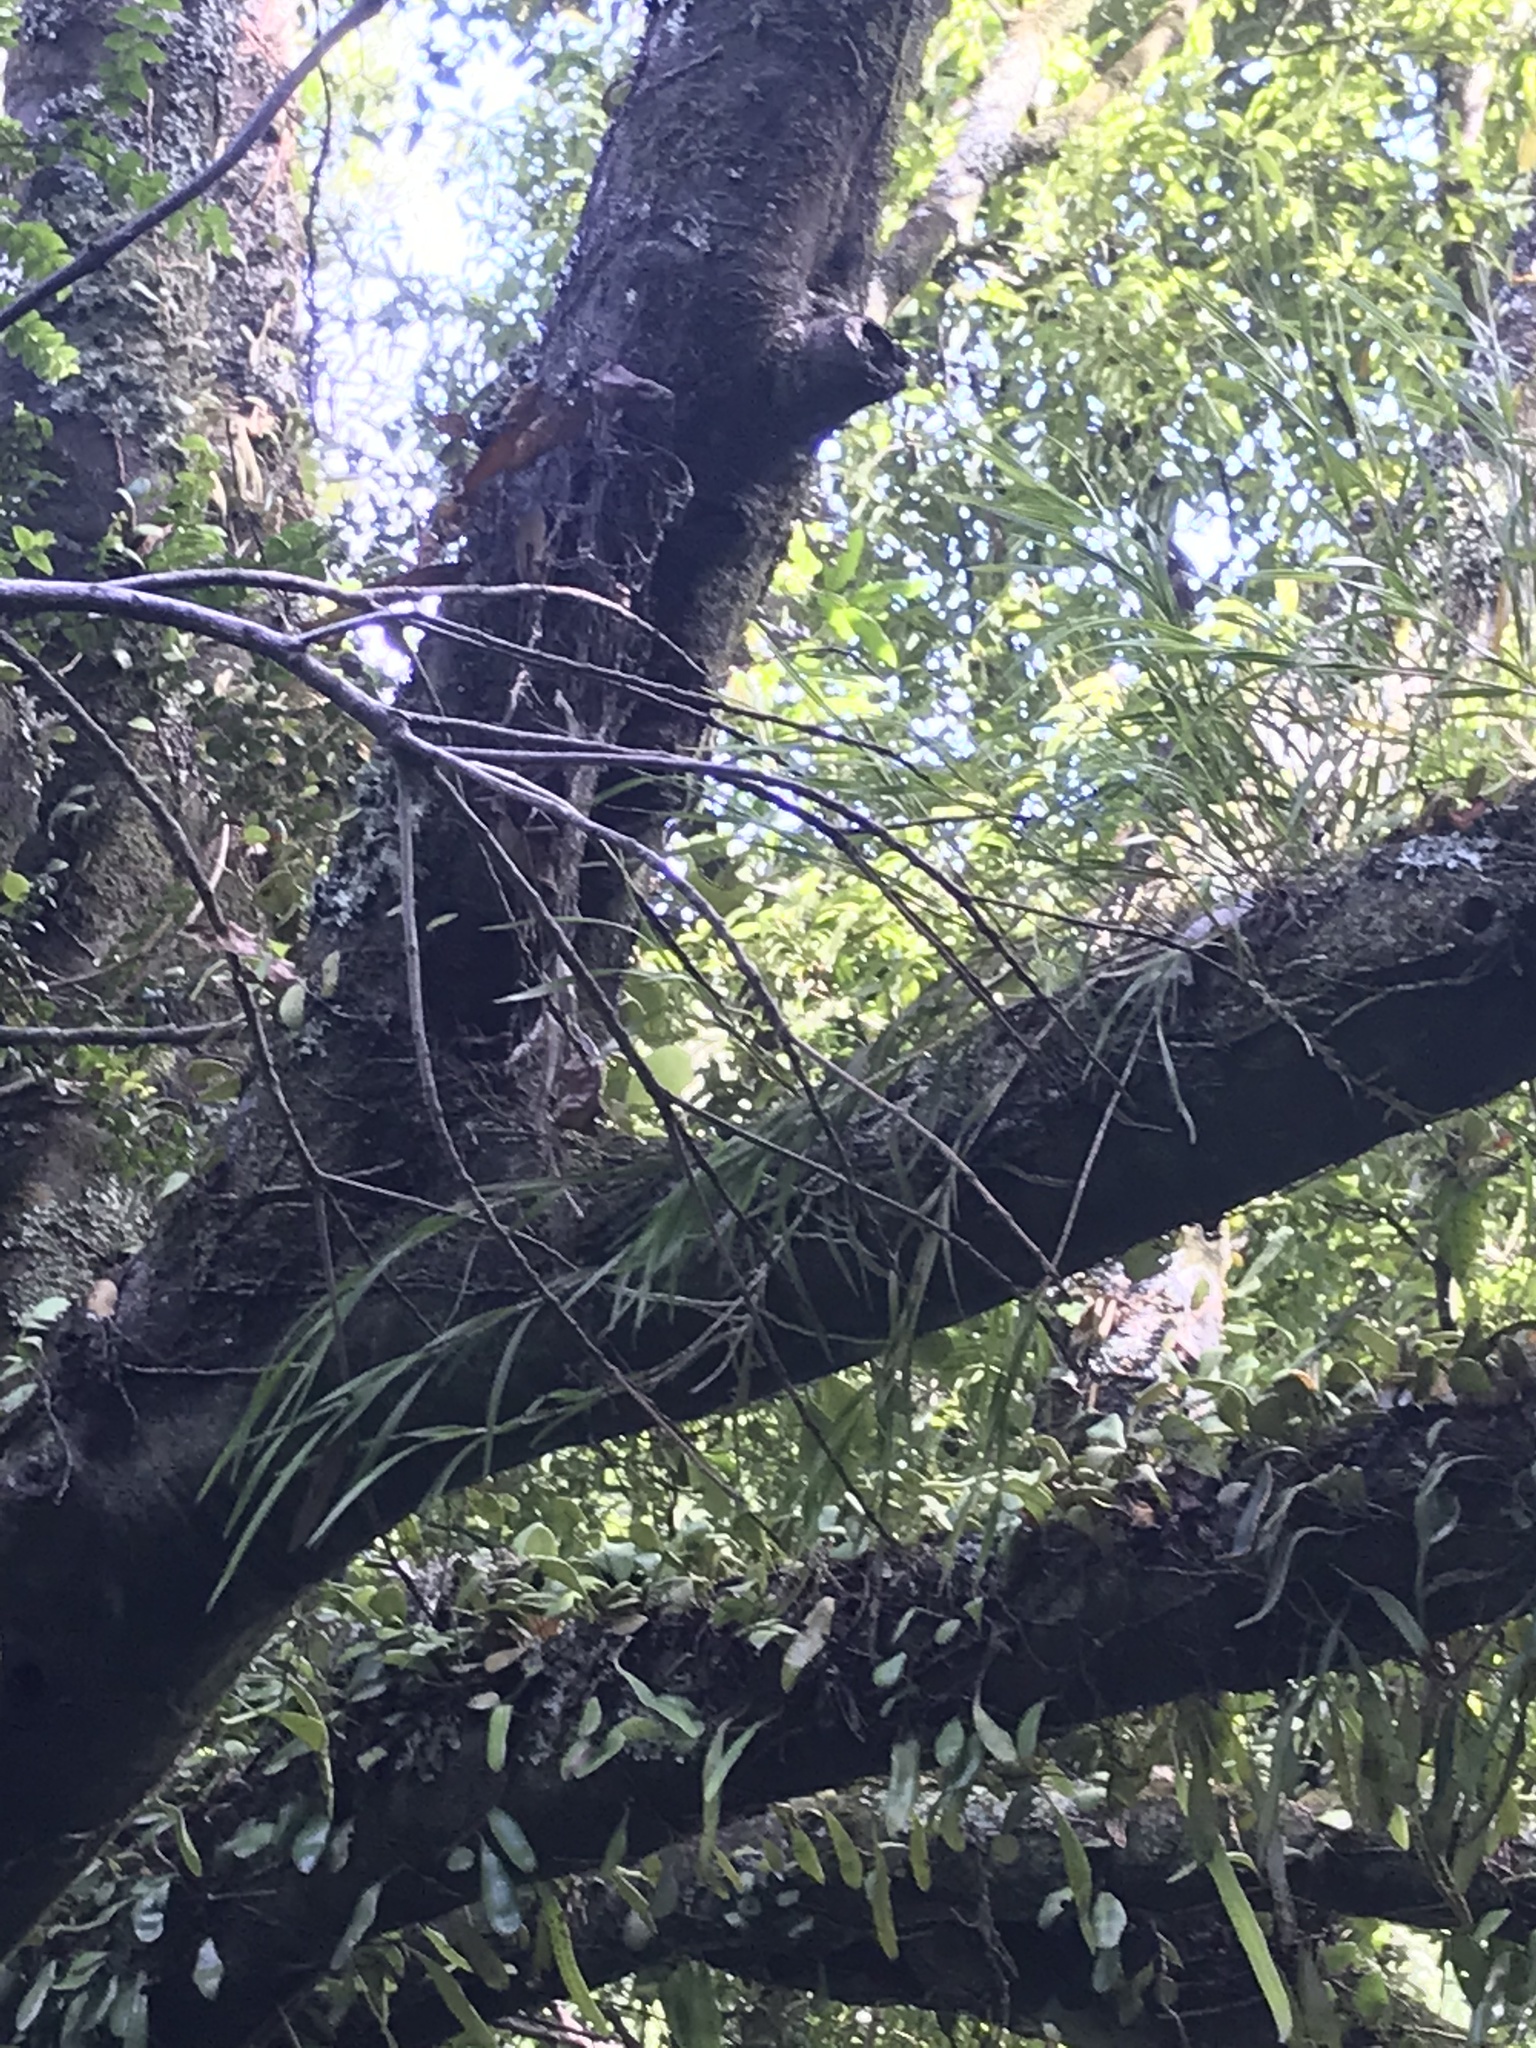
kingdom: Plantae
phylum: Tracheophyta
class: Liliopsida
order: Asparagales
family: Orchidaceae
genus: Earina
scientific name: Earina mucronata
